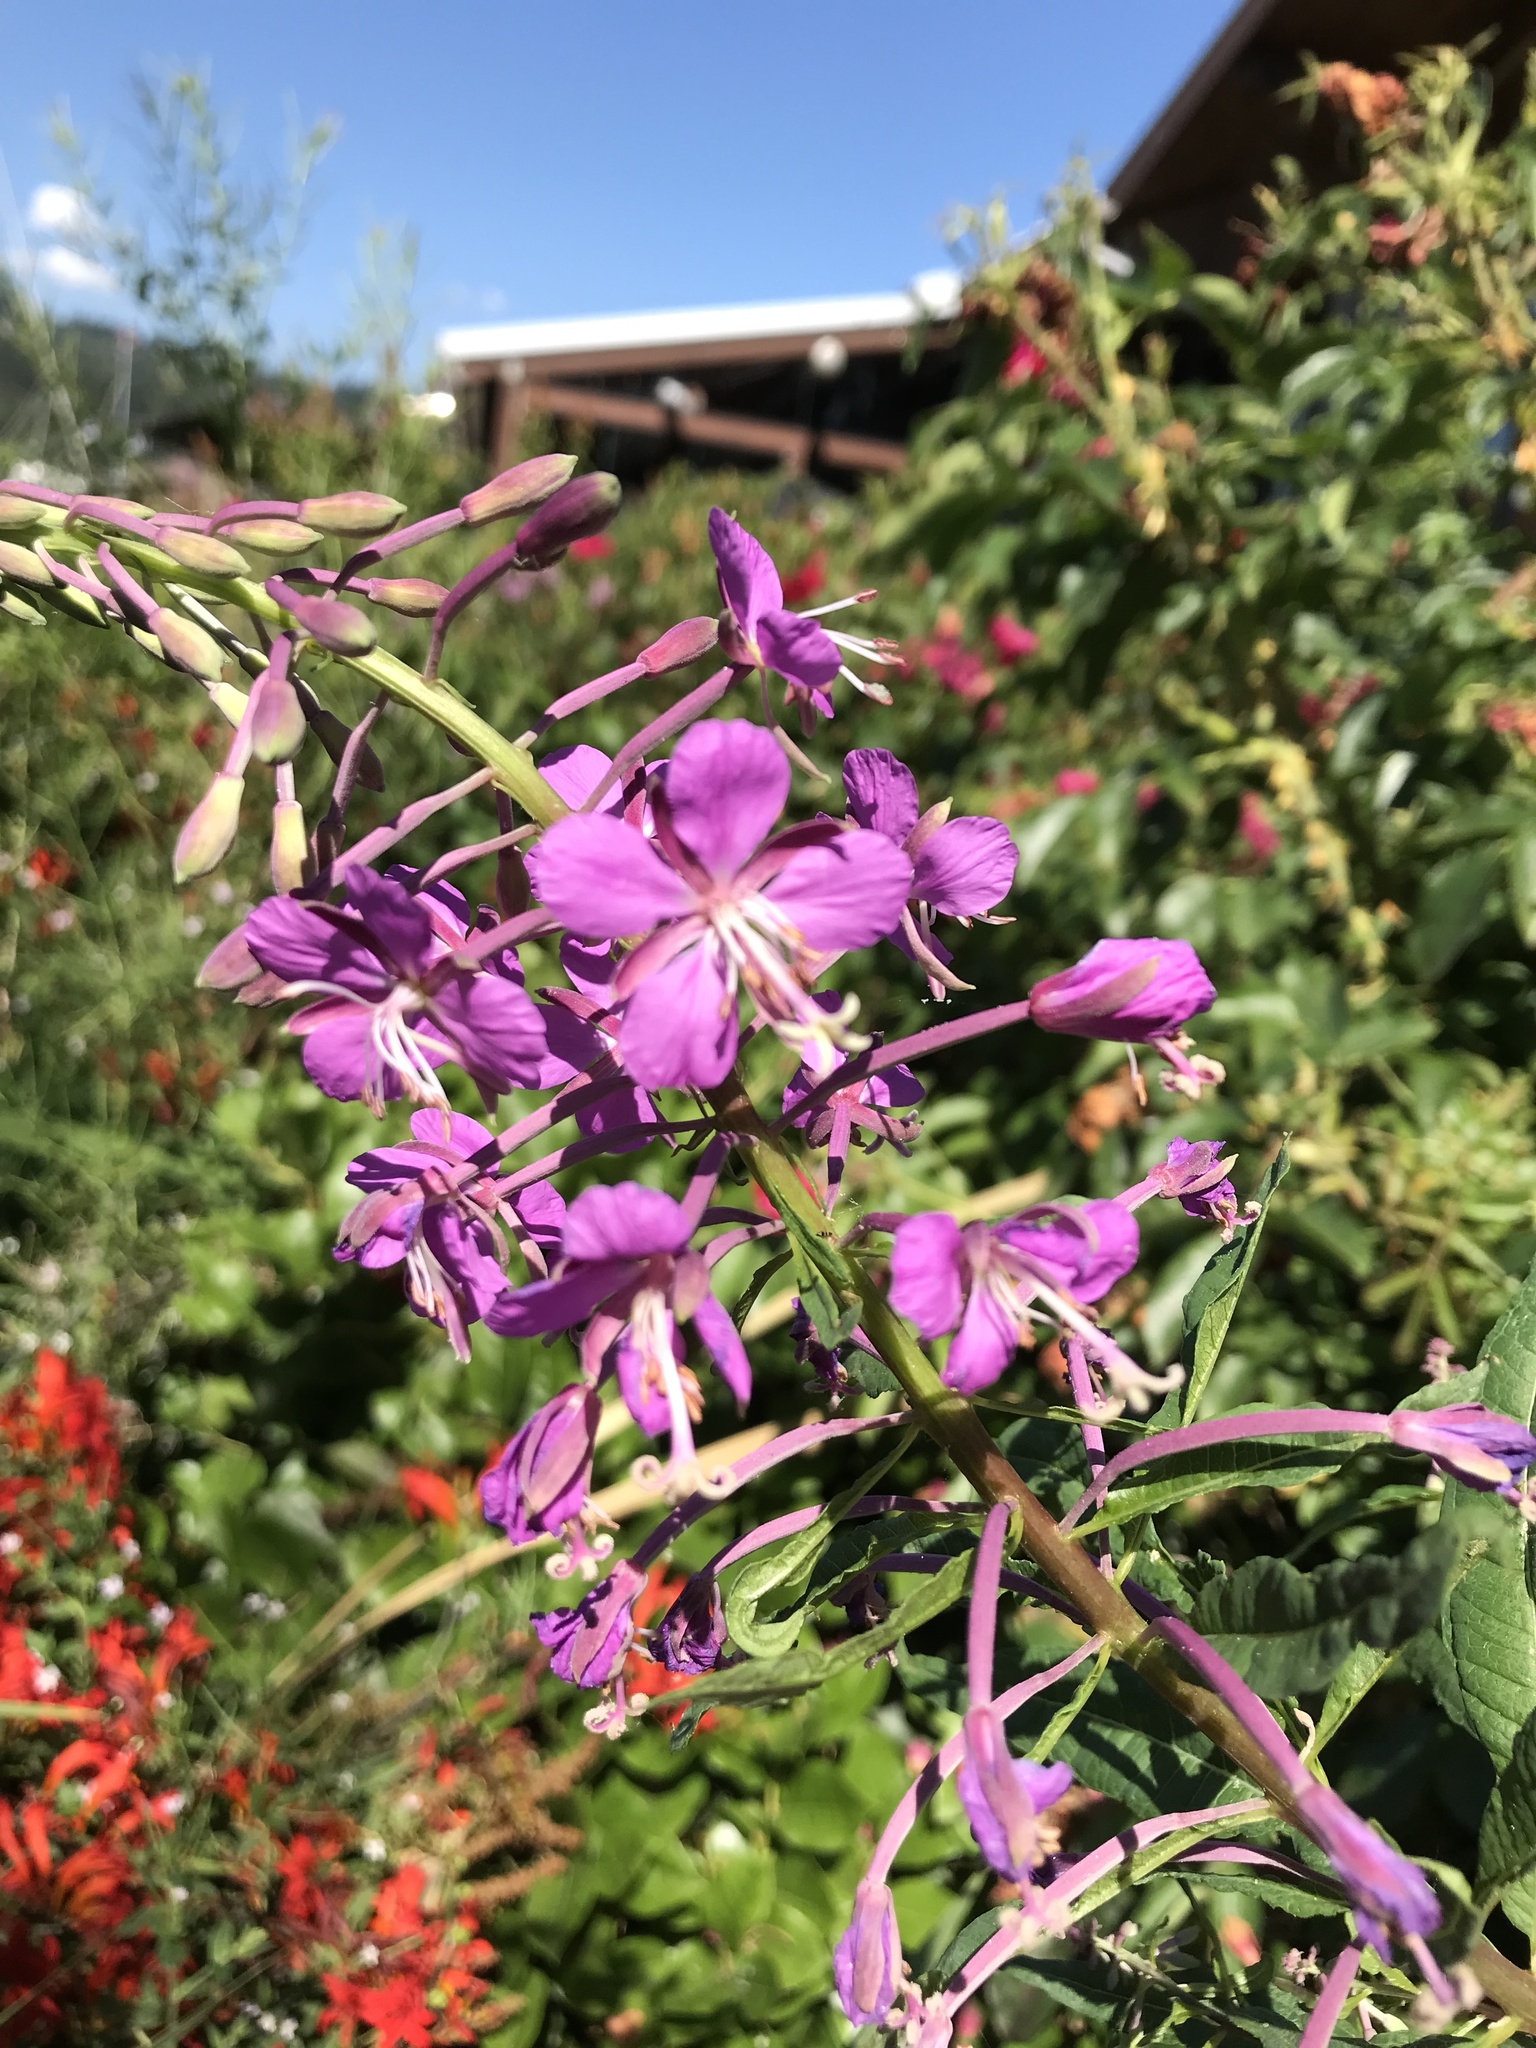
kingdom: Plantae
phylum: Tracheophyta
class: Magnoliopsida
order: Myrtales
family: Onagraceae
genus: Chamaenerion
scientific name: Chamaenerion angustifolium
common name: Fireweed
